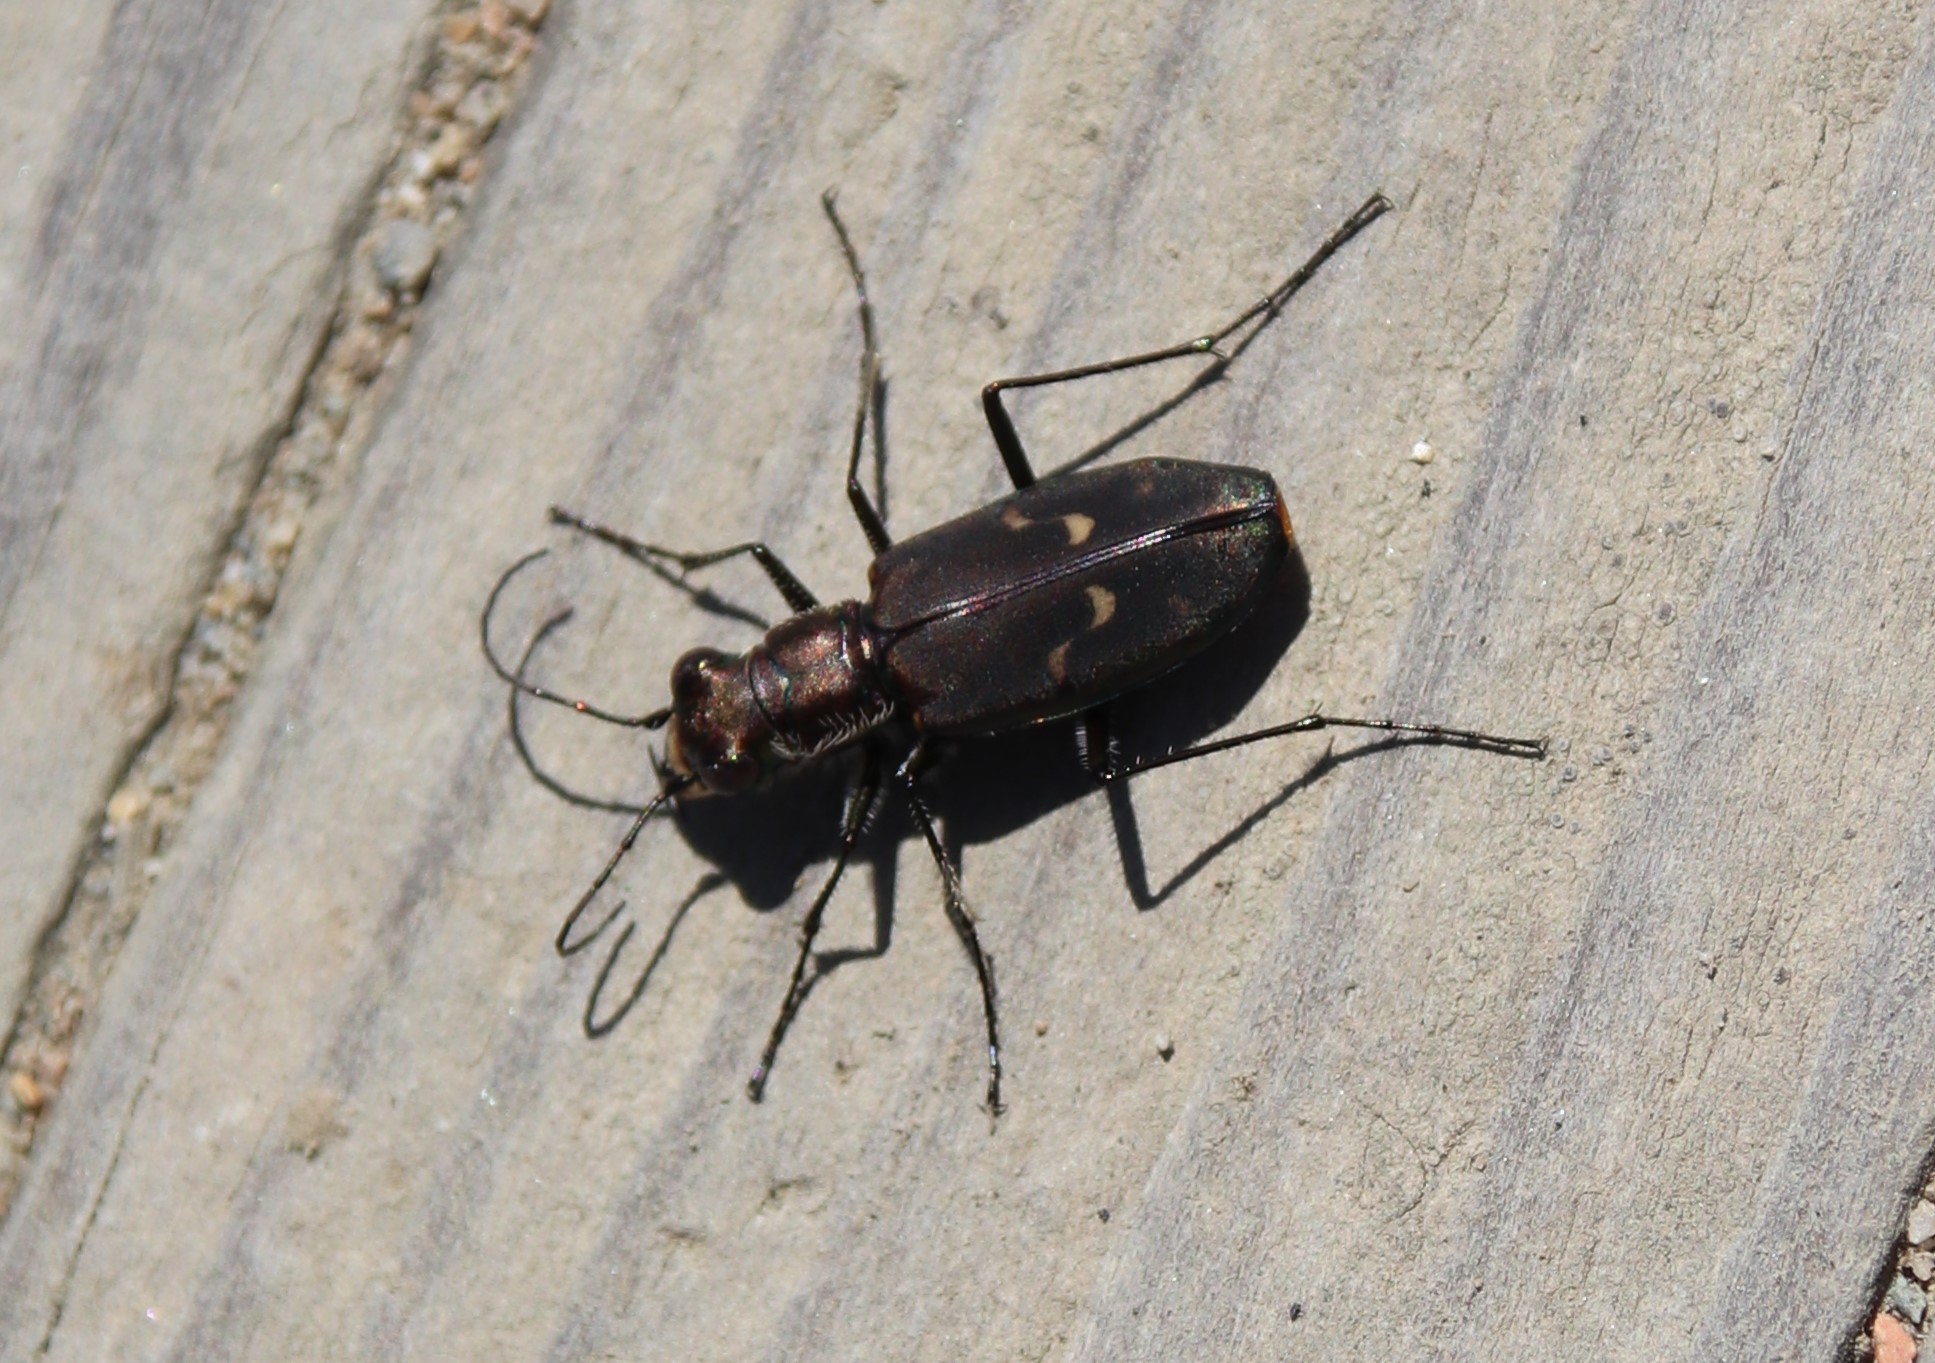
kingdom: Animalia
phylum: Arthropoda
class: Insecta
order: Coleoptera
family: Carabidae
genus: Cicindela
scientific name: Cicindela hemorrhagica
